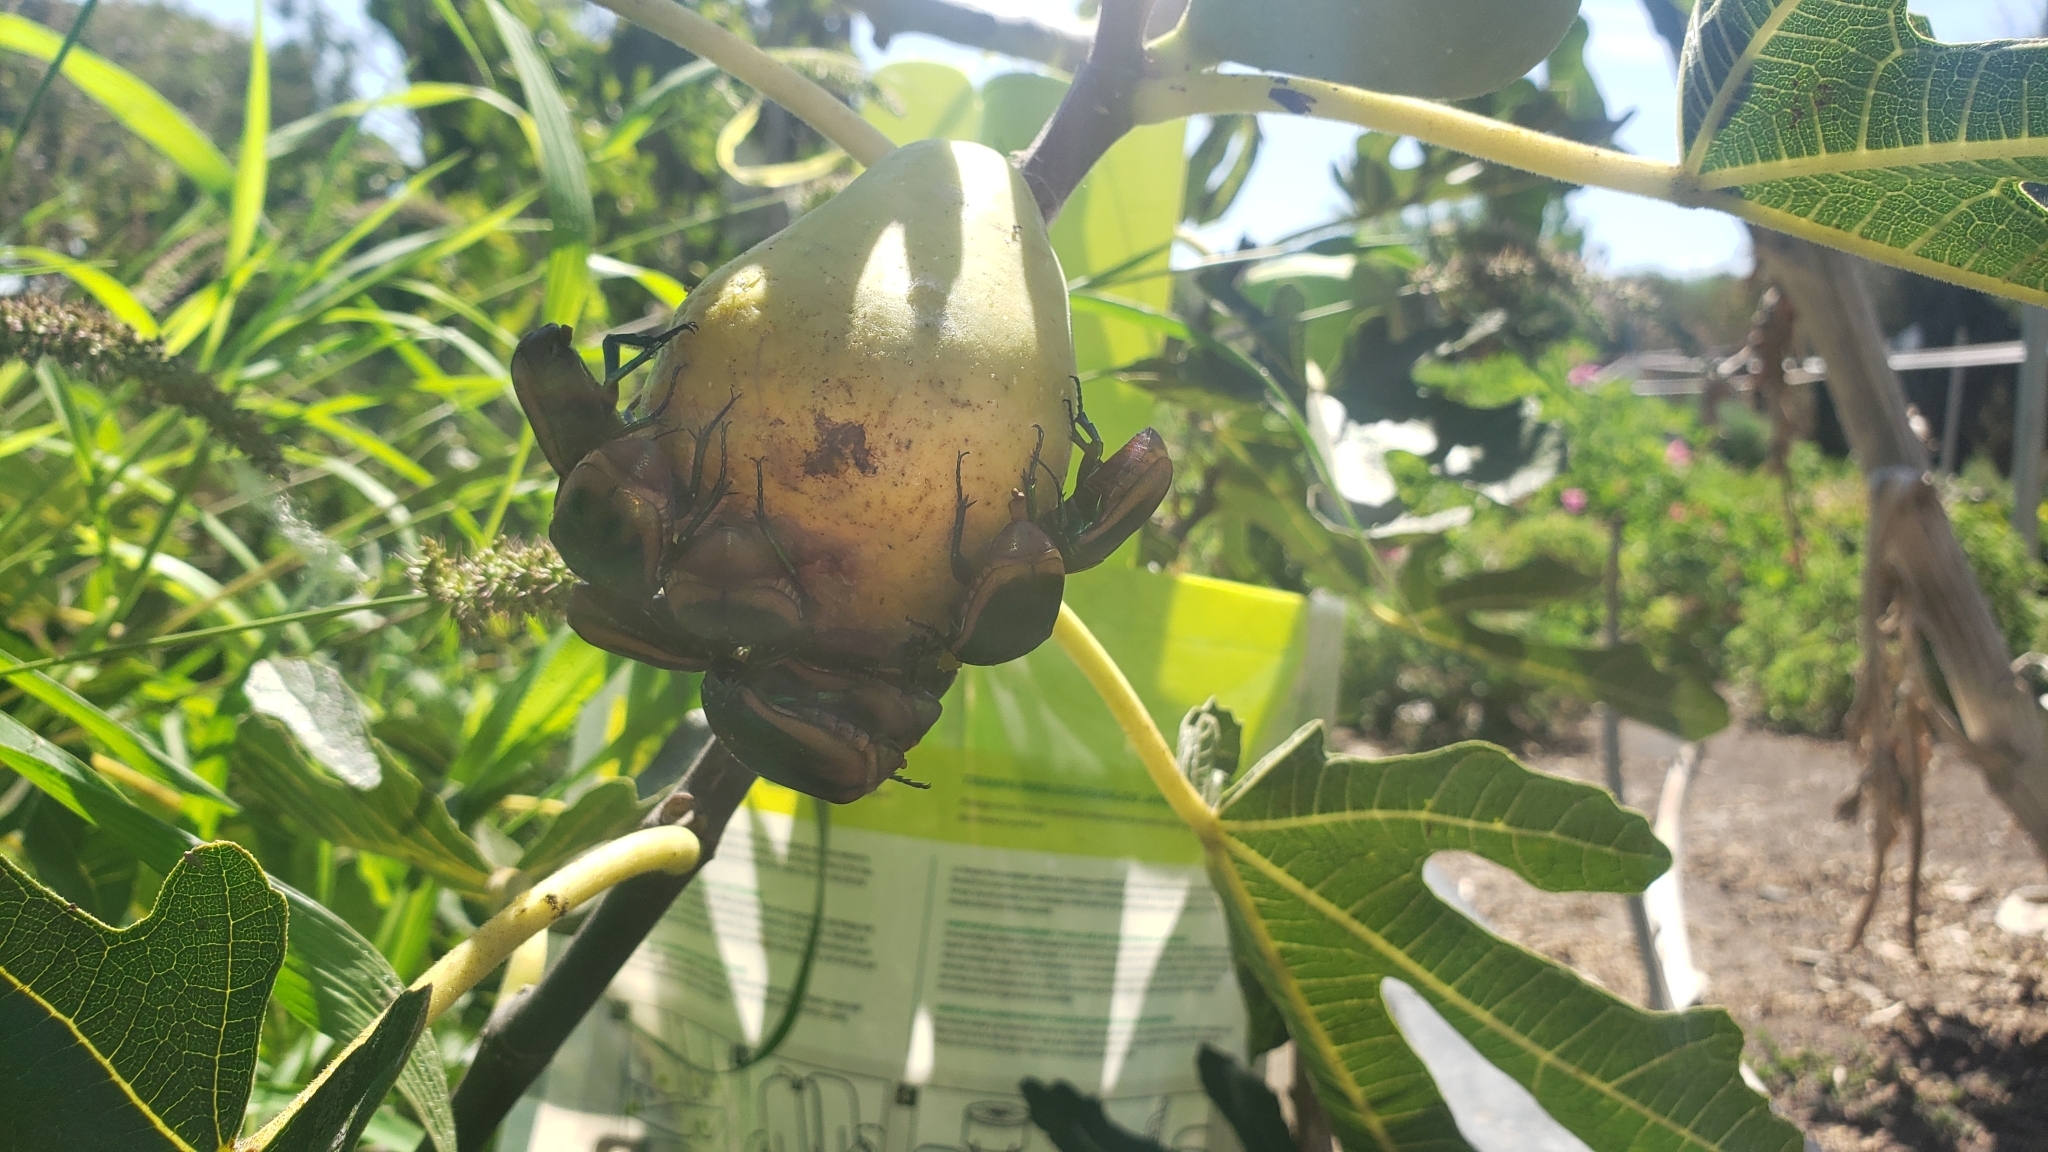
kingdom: Animalia
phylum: Arthropoda
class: Insecta
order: Coleoptera
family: Scarabaeidae
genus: Cotinis
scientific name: Cotinis mutabilis
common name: Figeater beetle
